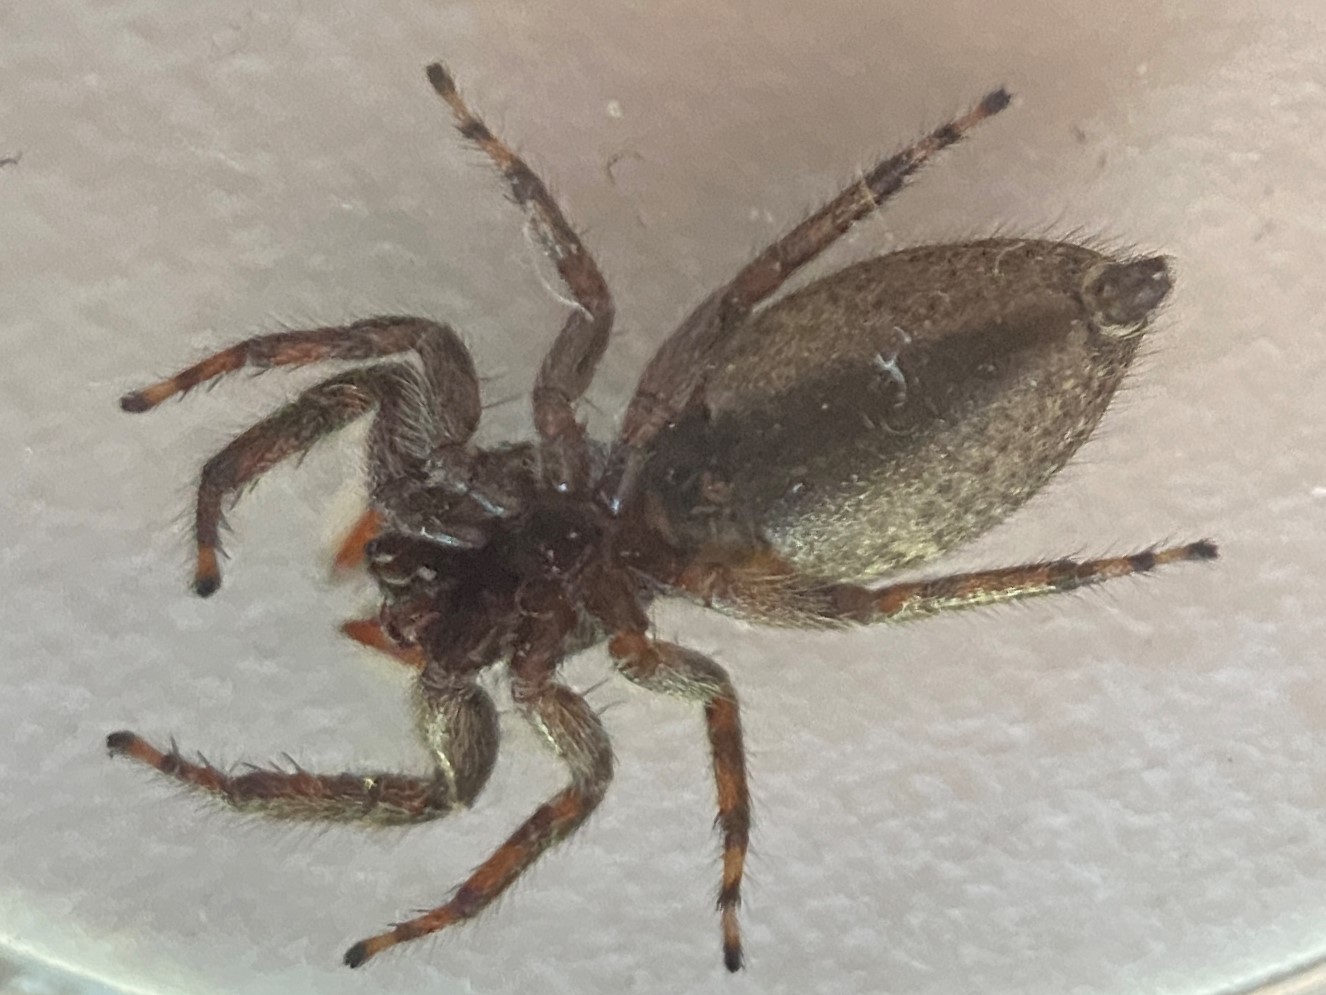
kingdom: Animalia
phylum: Arthropoda
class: Arachnida
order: Araneae
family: Salticidae
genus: Platycryptus
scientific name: Platycryptus undatus
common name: Tan jumping spider
